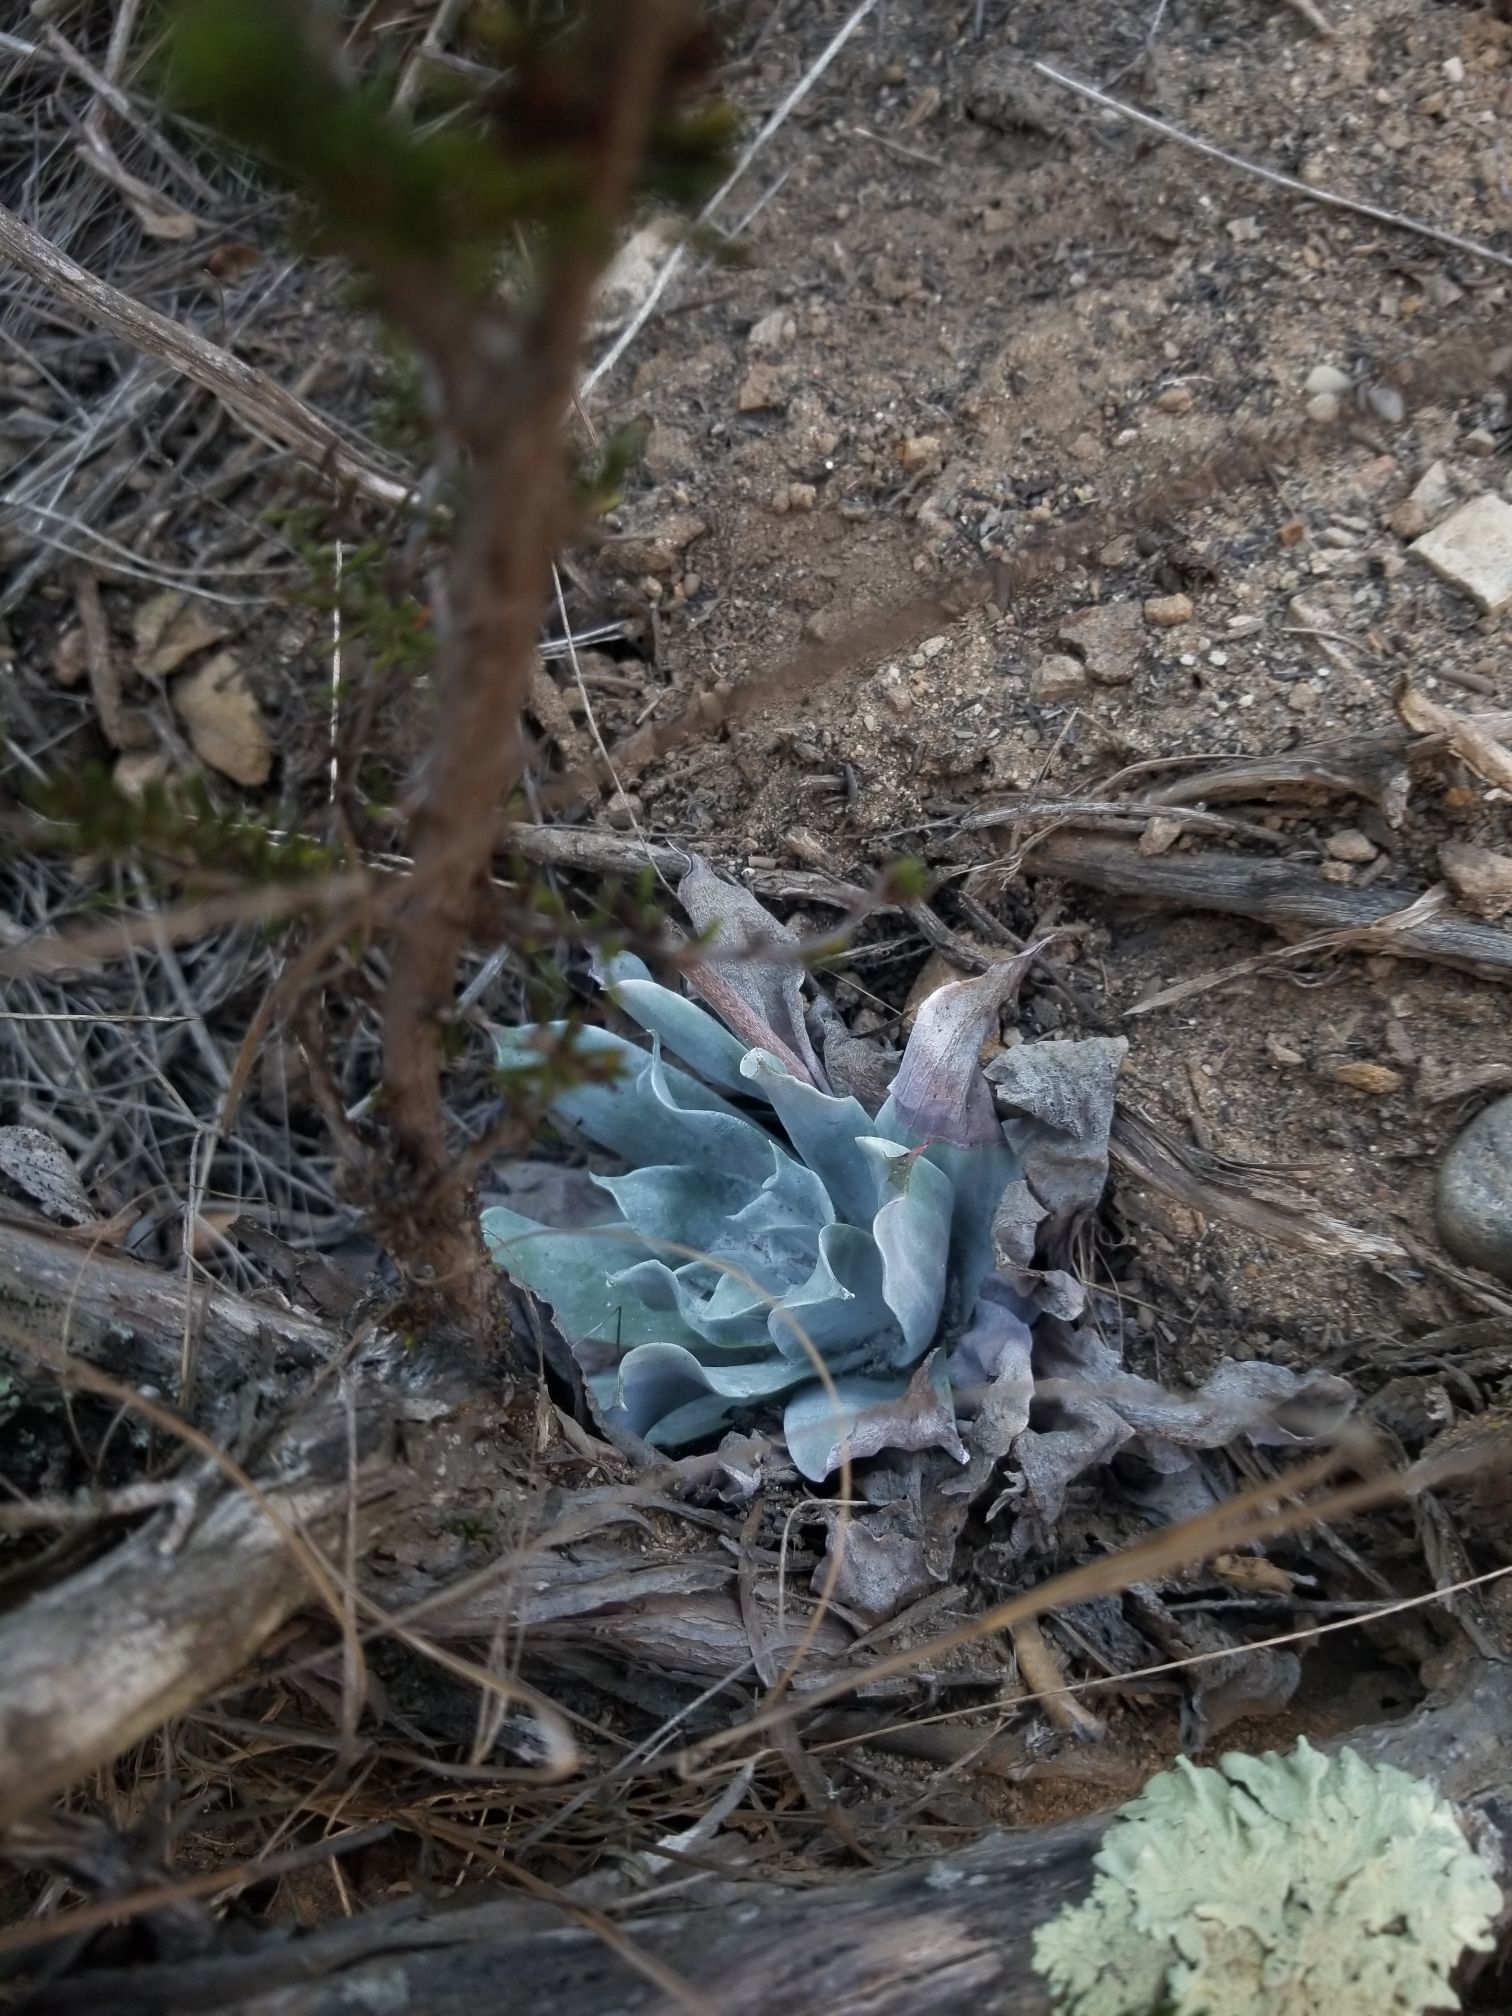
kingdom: Plantae
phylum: Tracheophyta
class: Magnoliopsida
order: Saxifragales
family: Crassulaceae
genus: Dudleya
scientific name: Dudleya pulverulenta
